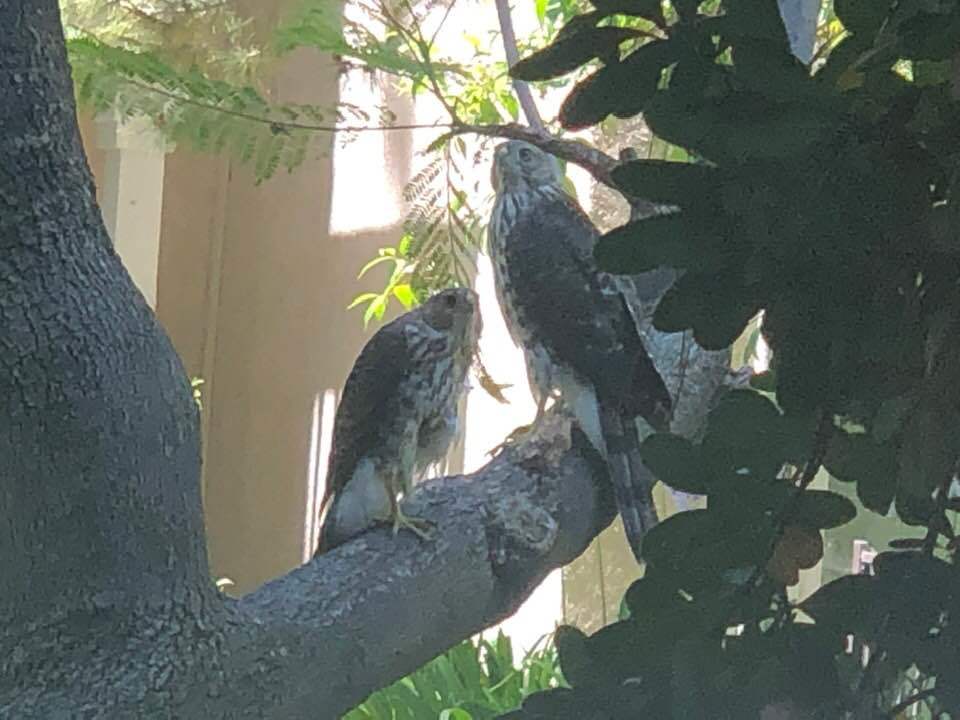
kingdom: Animalia
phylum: Chordata
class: Aves
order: Accipitriformes
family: Accipitridae
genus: Accipiter
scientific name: Accipiter cooperii
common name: Cooper's hawk
